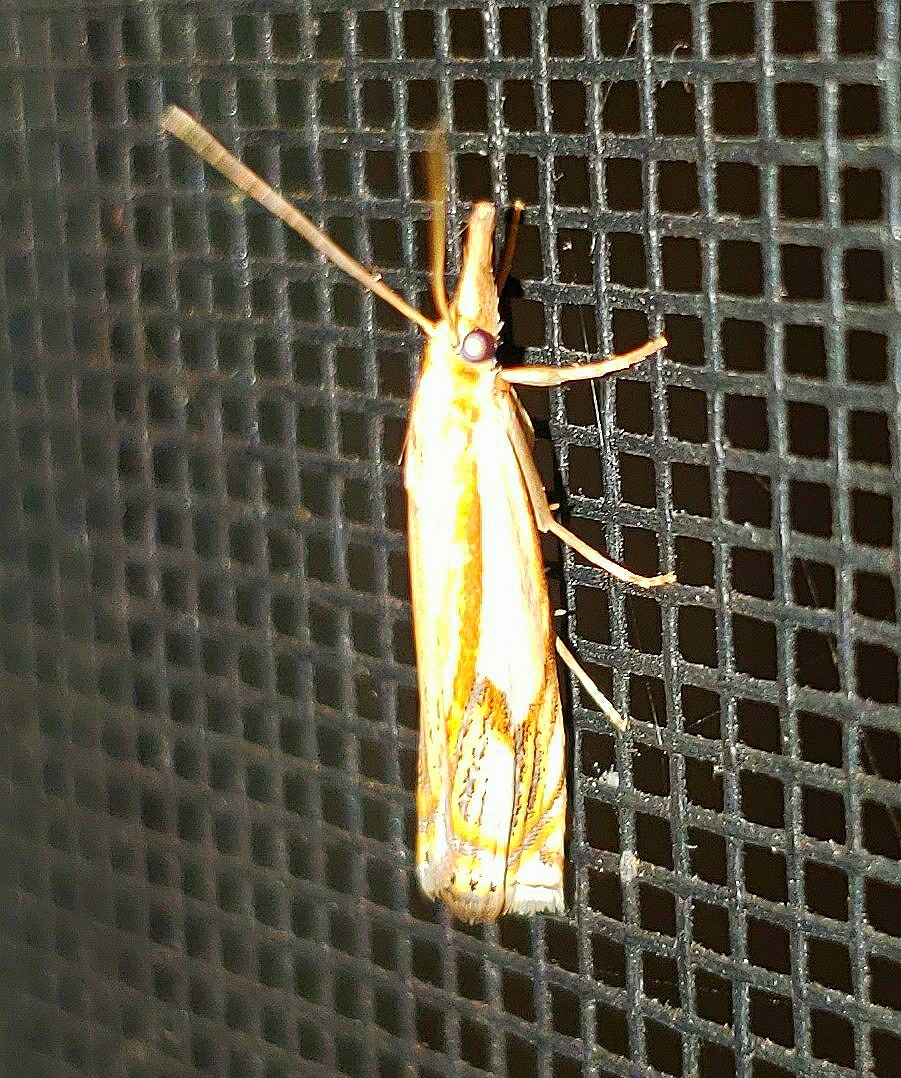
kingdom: Animalia
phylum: Arthropoda
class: Insecta
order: Lepidoptera
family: Crambidae
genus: Crambus
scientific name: Crambus agitatellus
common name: Double-banded grass-veneer
